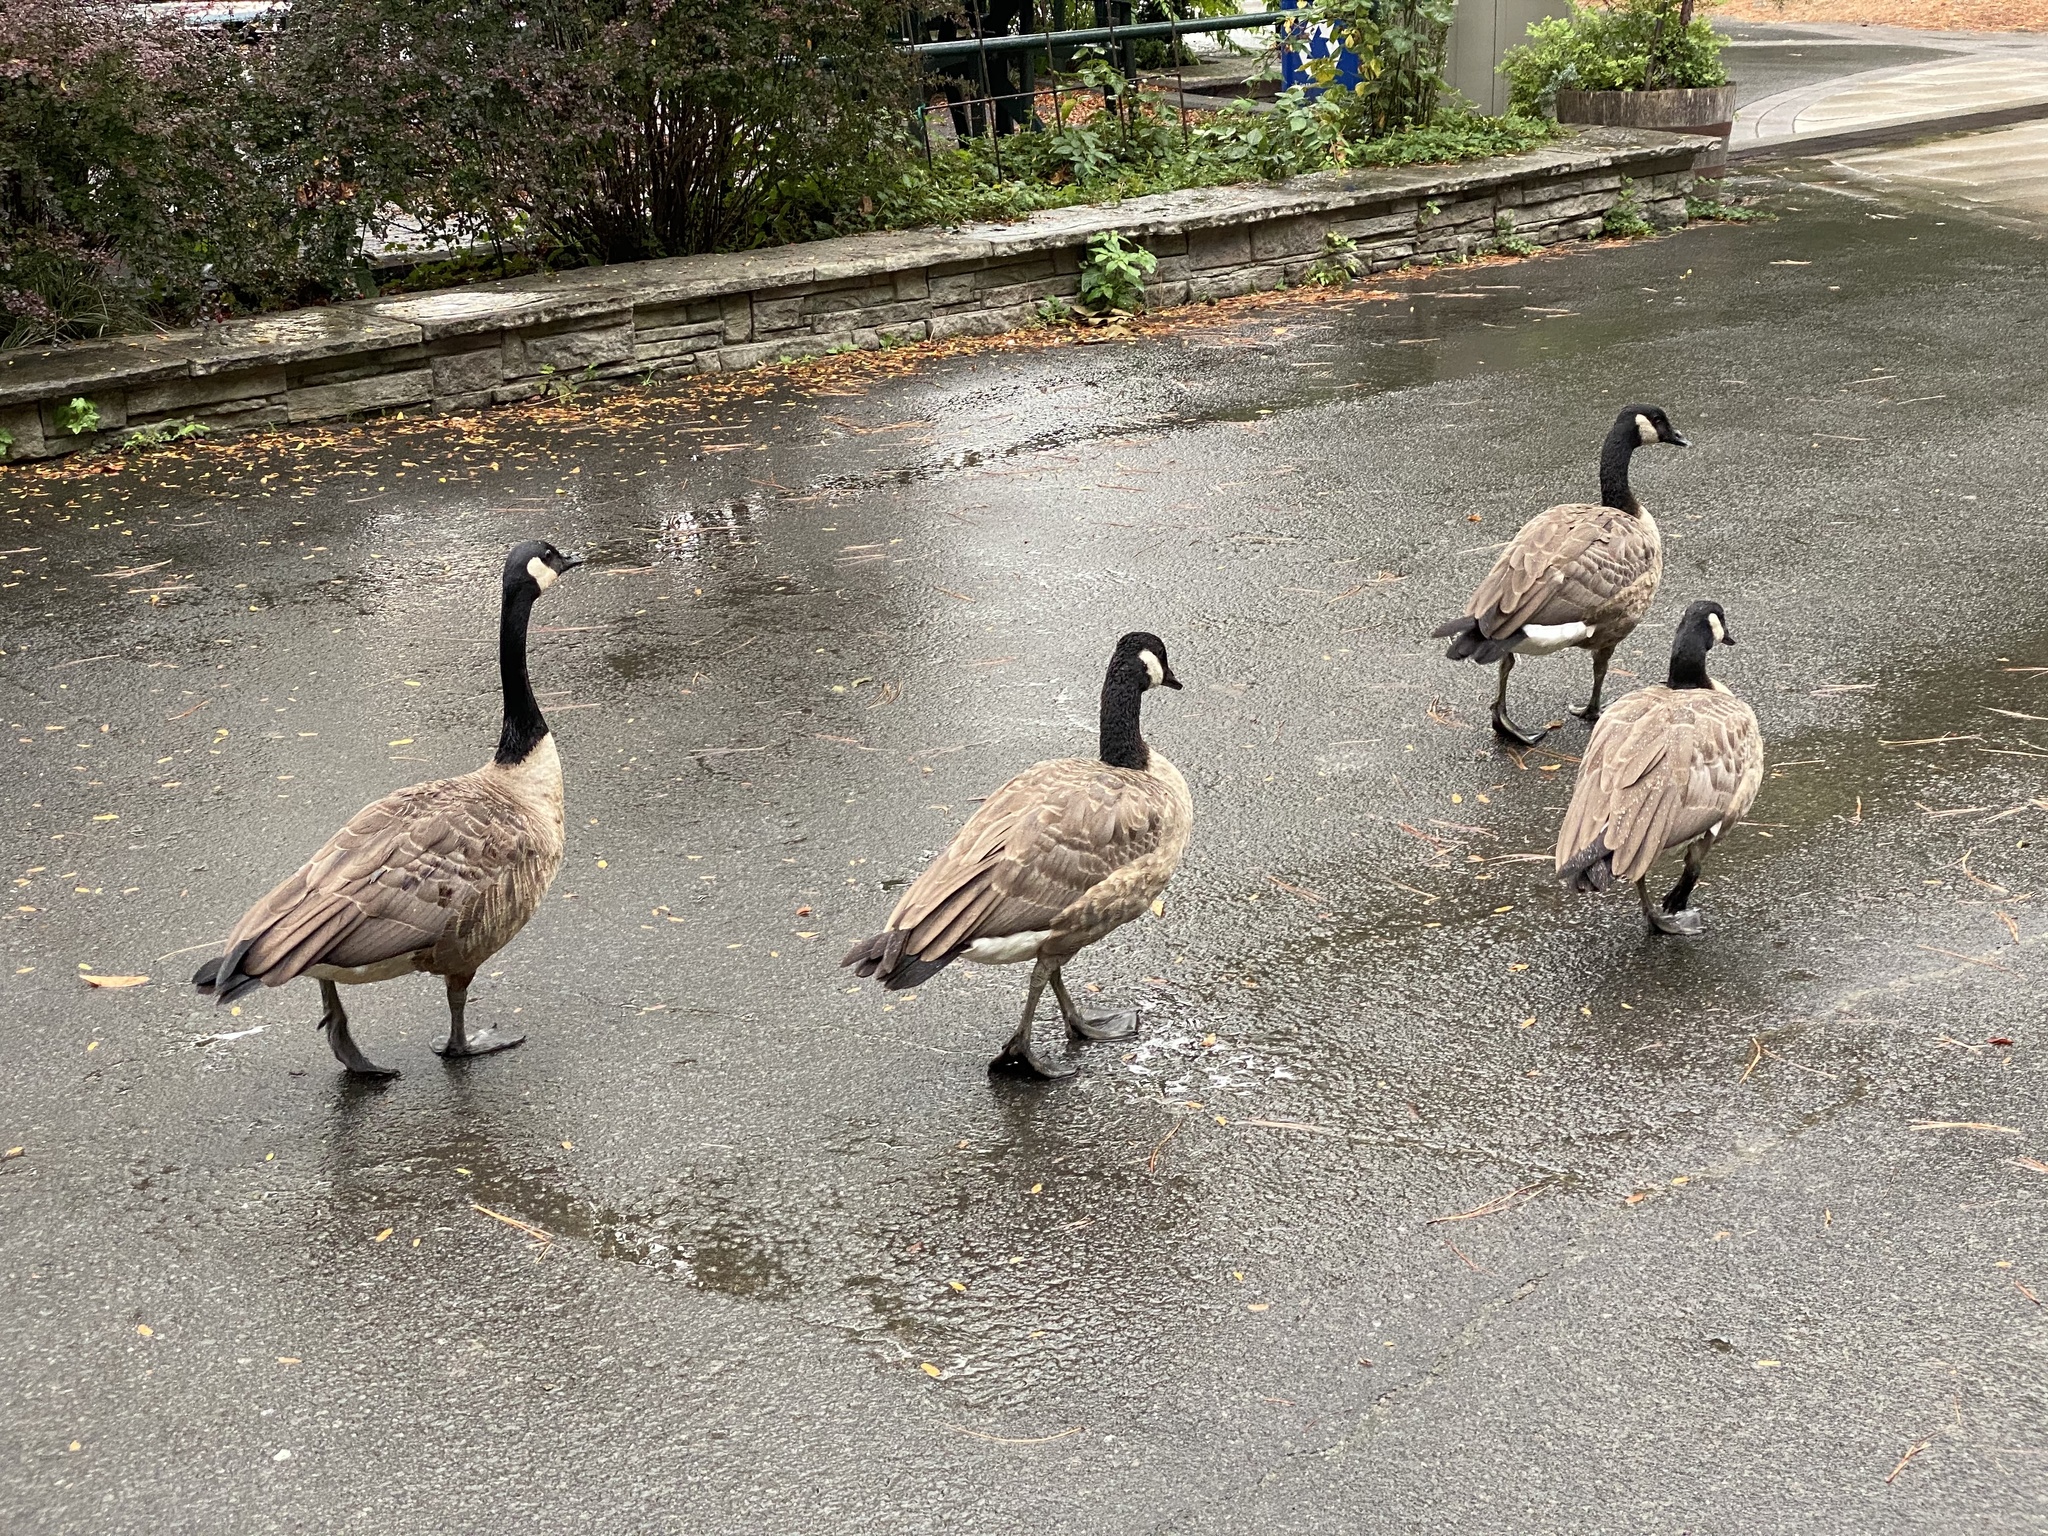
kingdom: Animalia
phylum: Chordata
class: Aves
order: Anseriformes
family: Anatidae
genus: Branta
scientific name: Branta canadensis
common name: Canada goose
